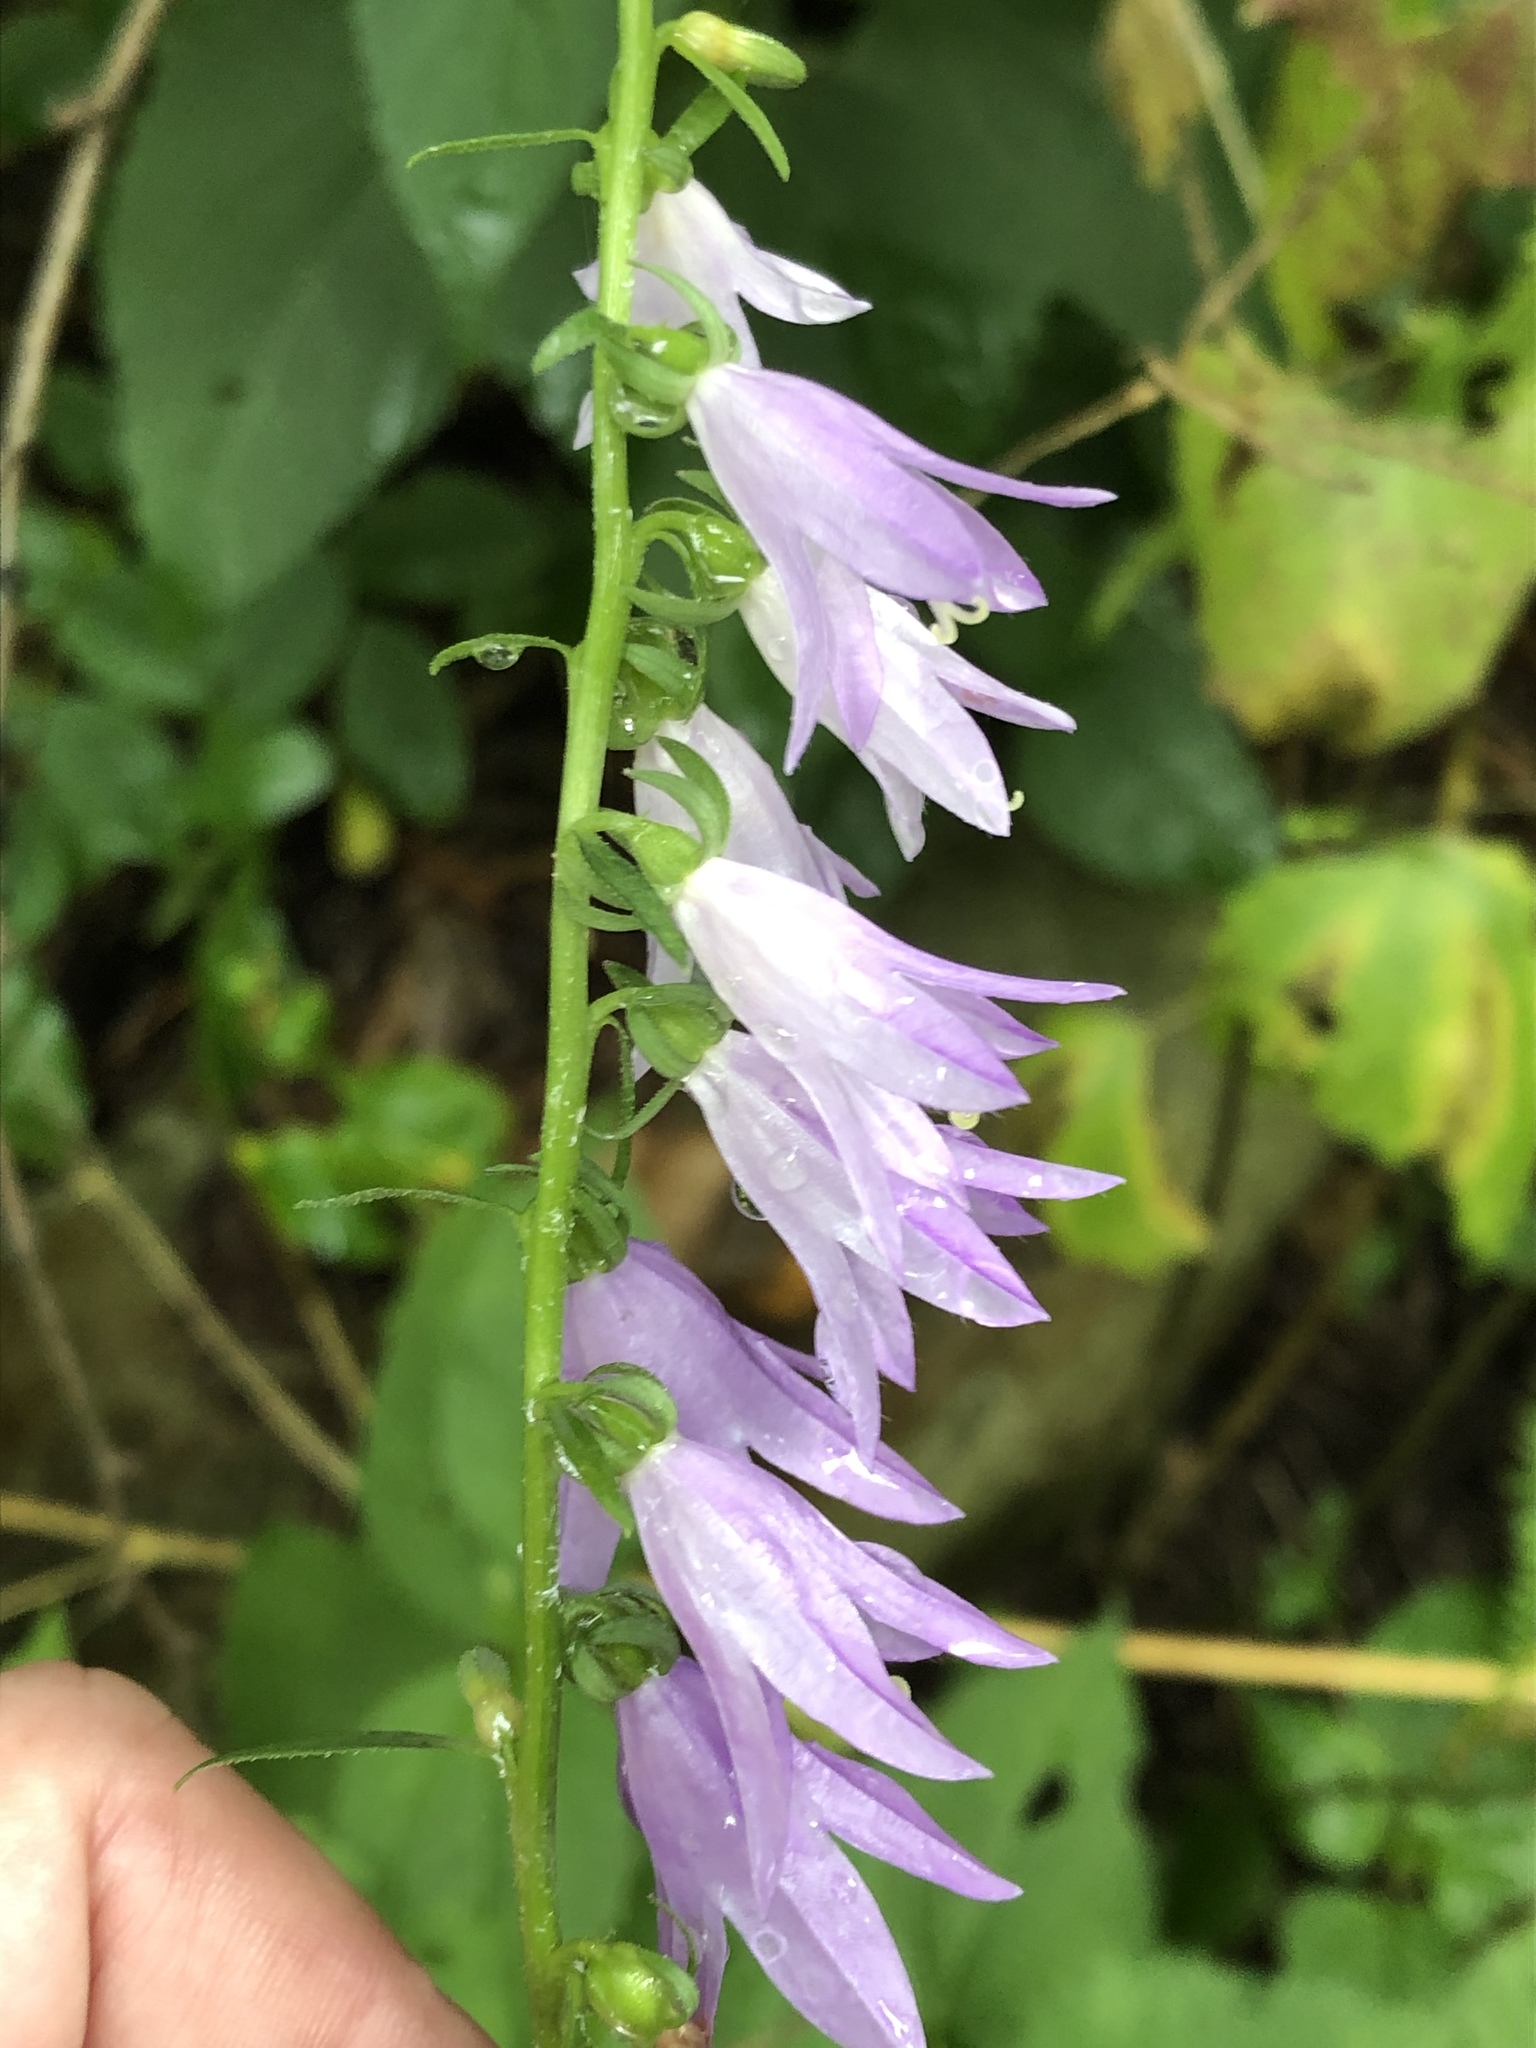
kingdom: Plantae
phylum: Tracheophyta
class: Magnoliopsida
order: Asterales
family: Campanulaceae
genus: Campanula
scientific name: Campanula rapunculoides
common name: Creeping bellflower
